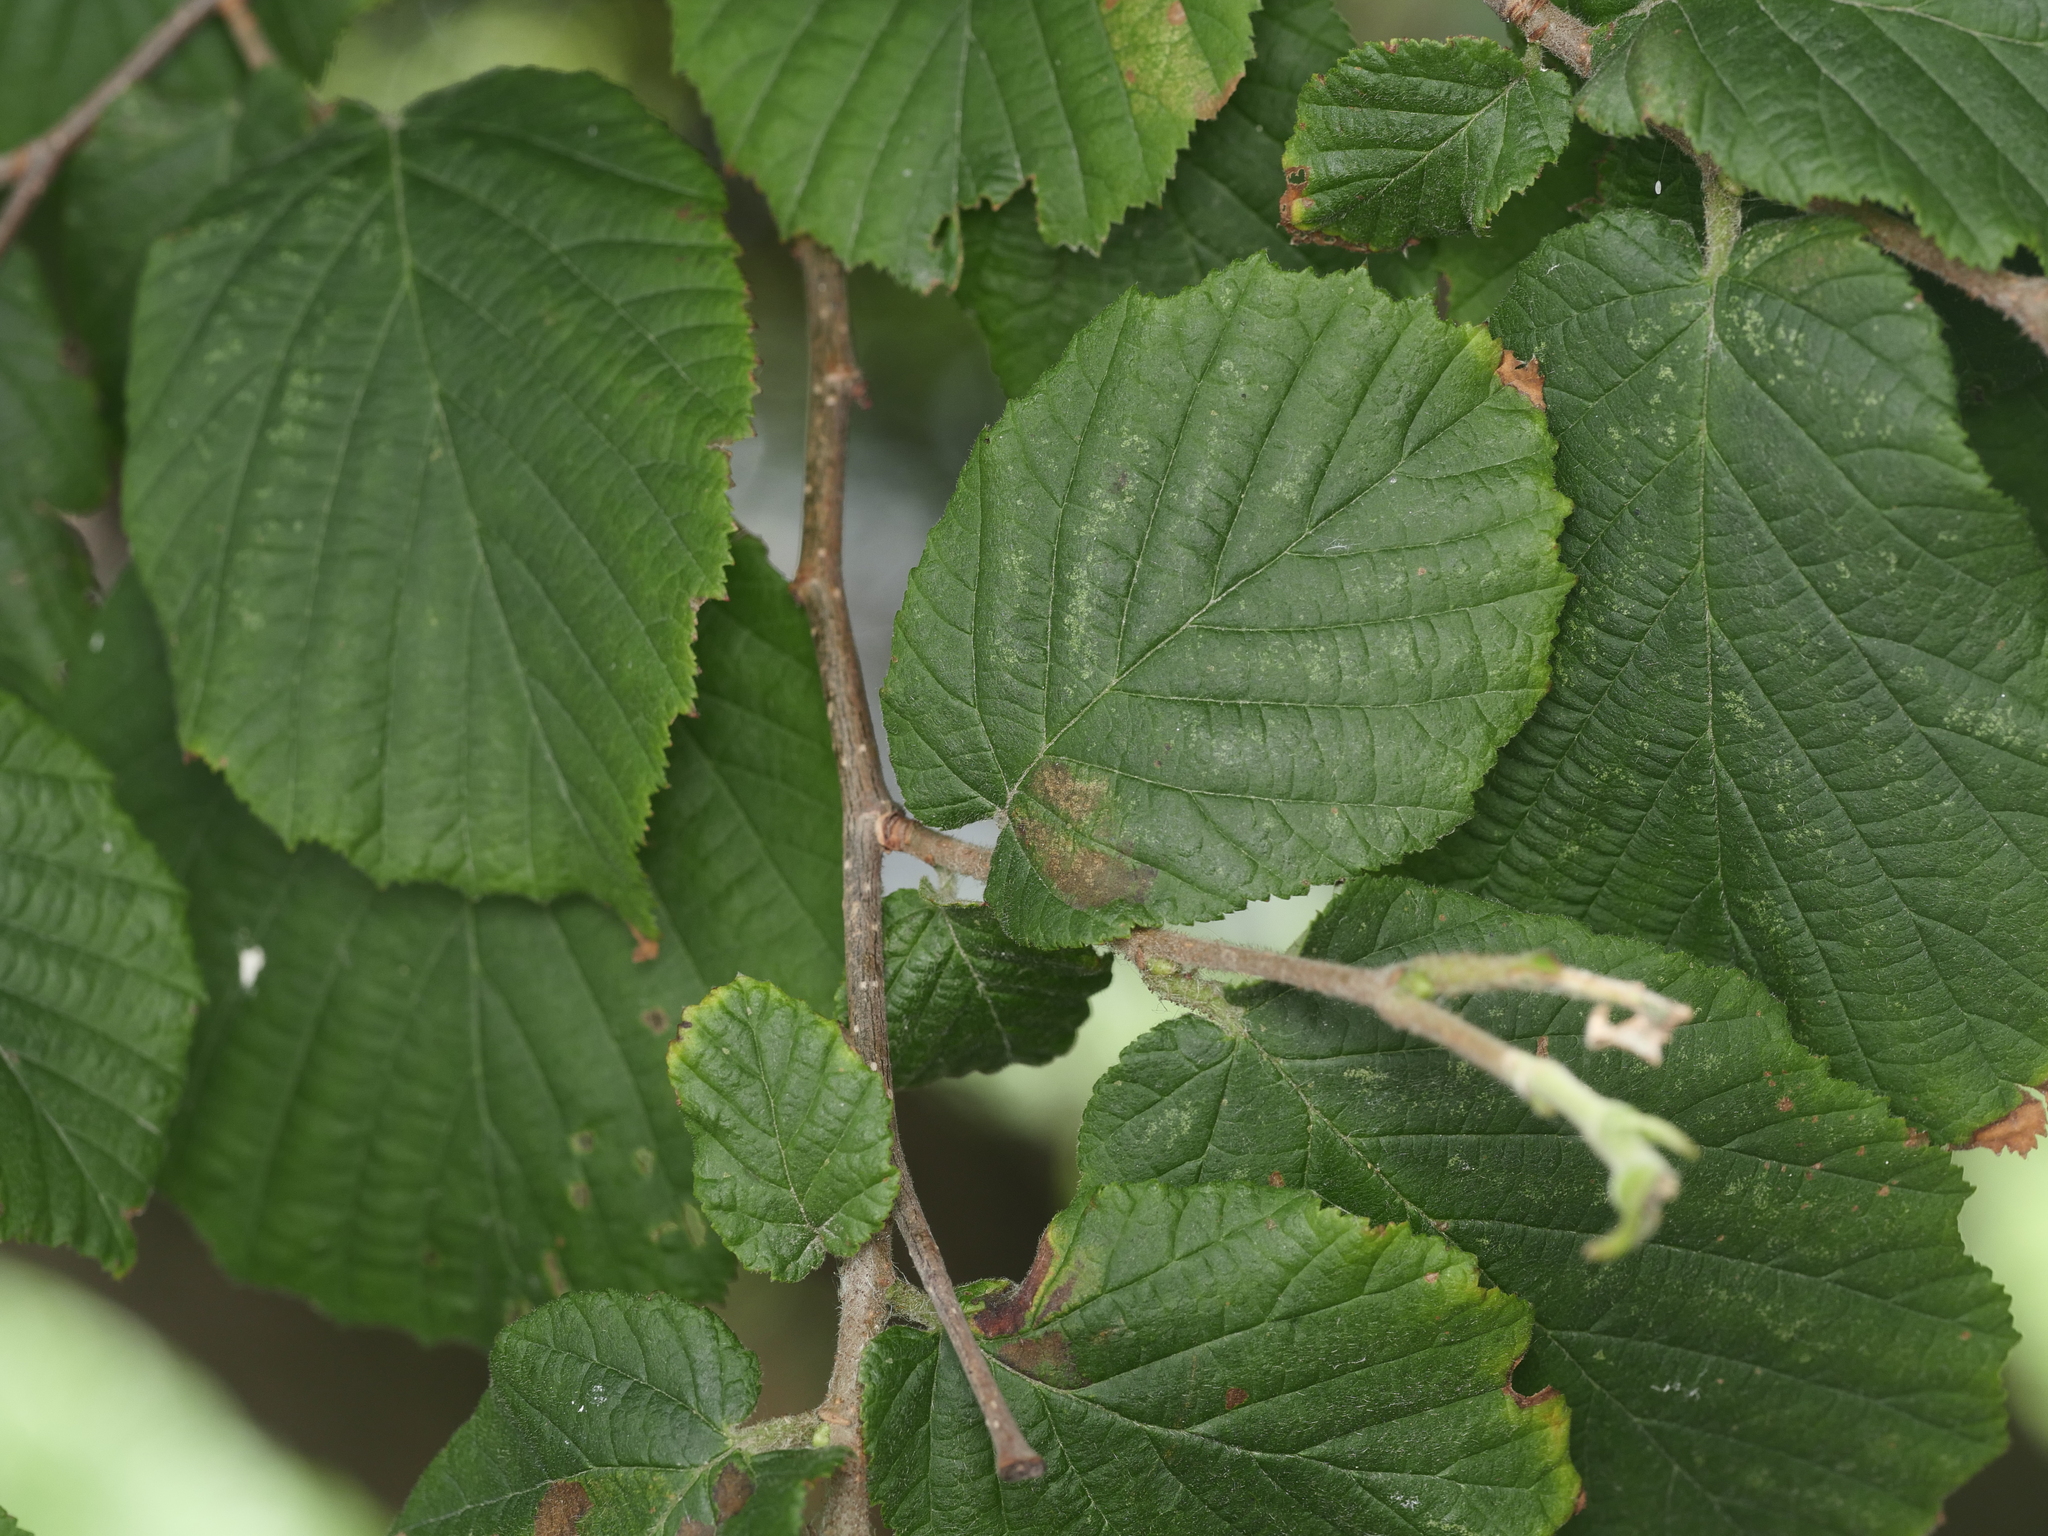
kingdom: Plantae
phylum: Tracheophyta
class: Magnoliopsida
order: Fagales
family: Betulaceae
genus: Corylus
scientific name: Corylus avellana
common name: European hazel
